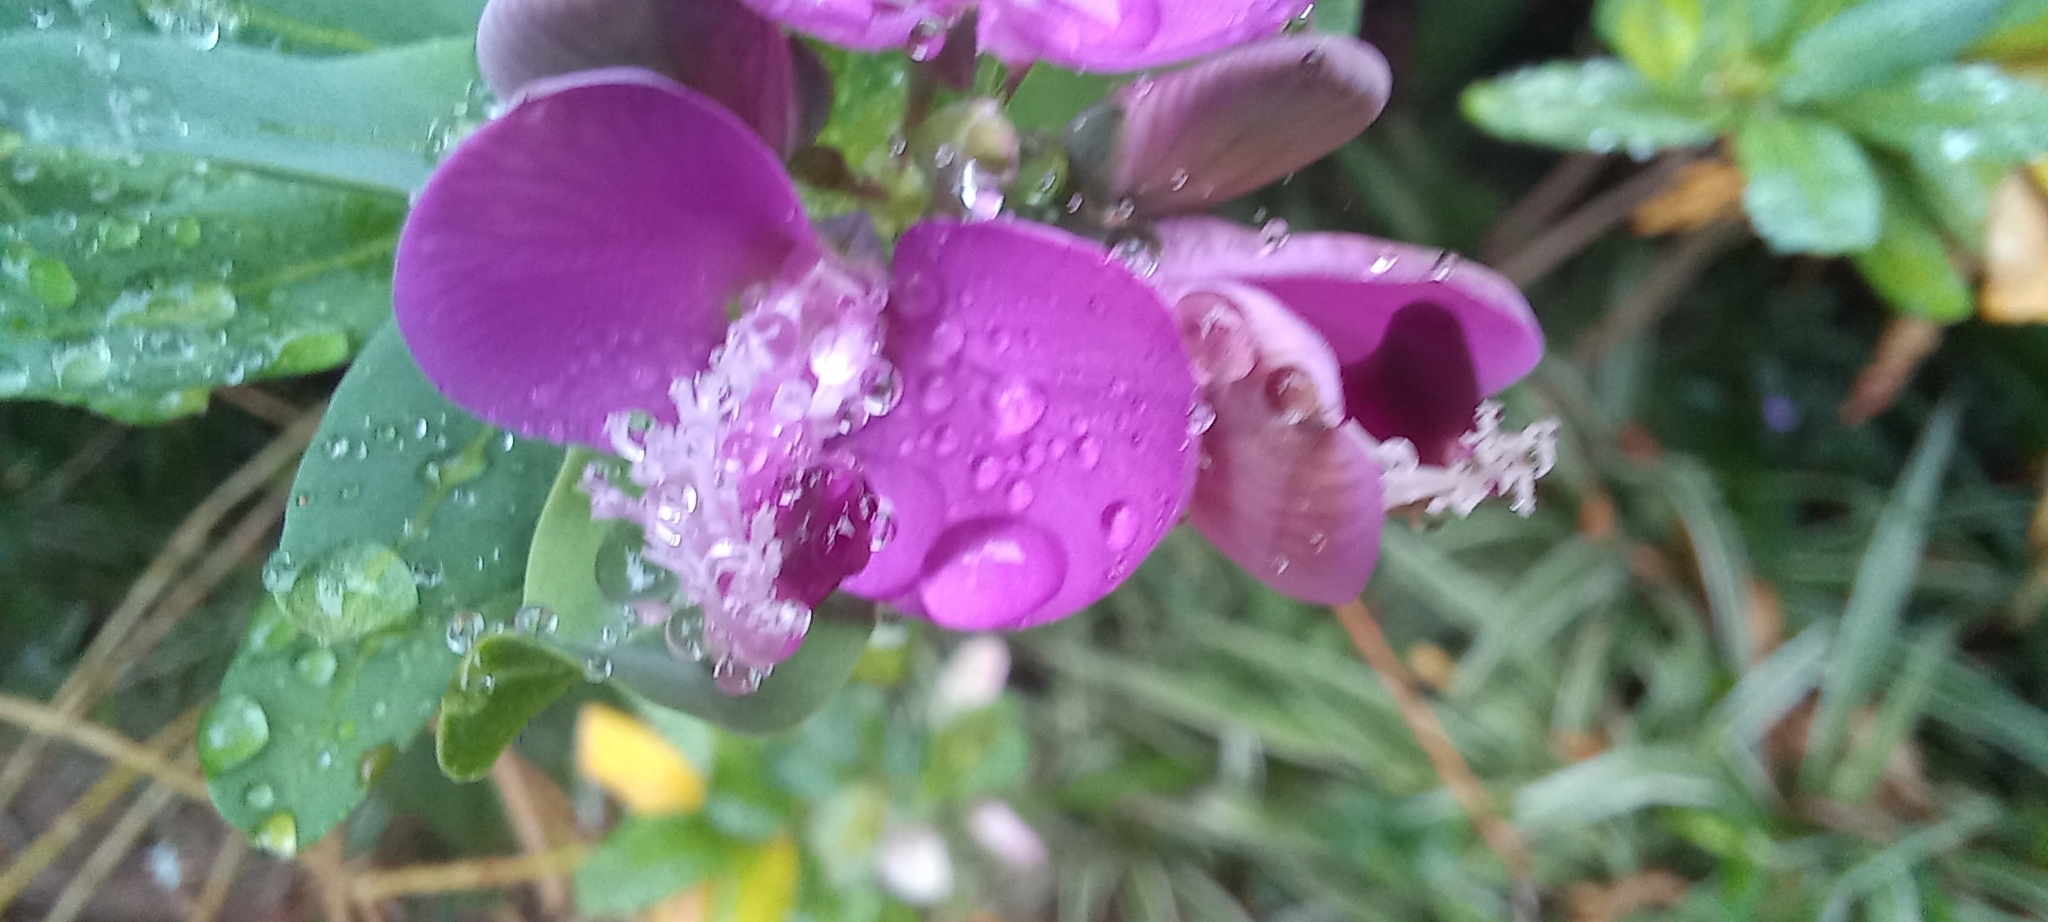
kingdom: Plantae
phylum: Tracheophyta
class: Magnoliopsida
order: Fabales
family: Polygalaceae
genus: Polygala
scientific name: Polygala myrtifolia
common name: Myrtle-leaf milkwort
